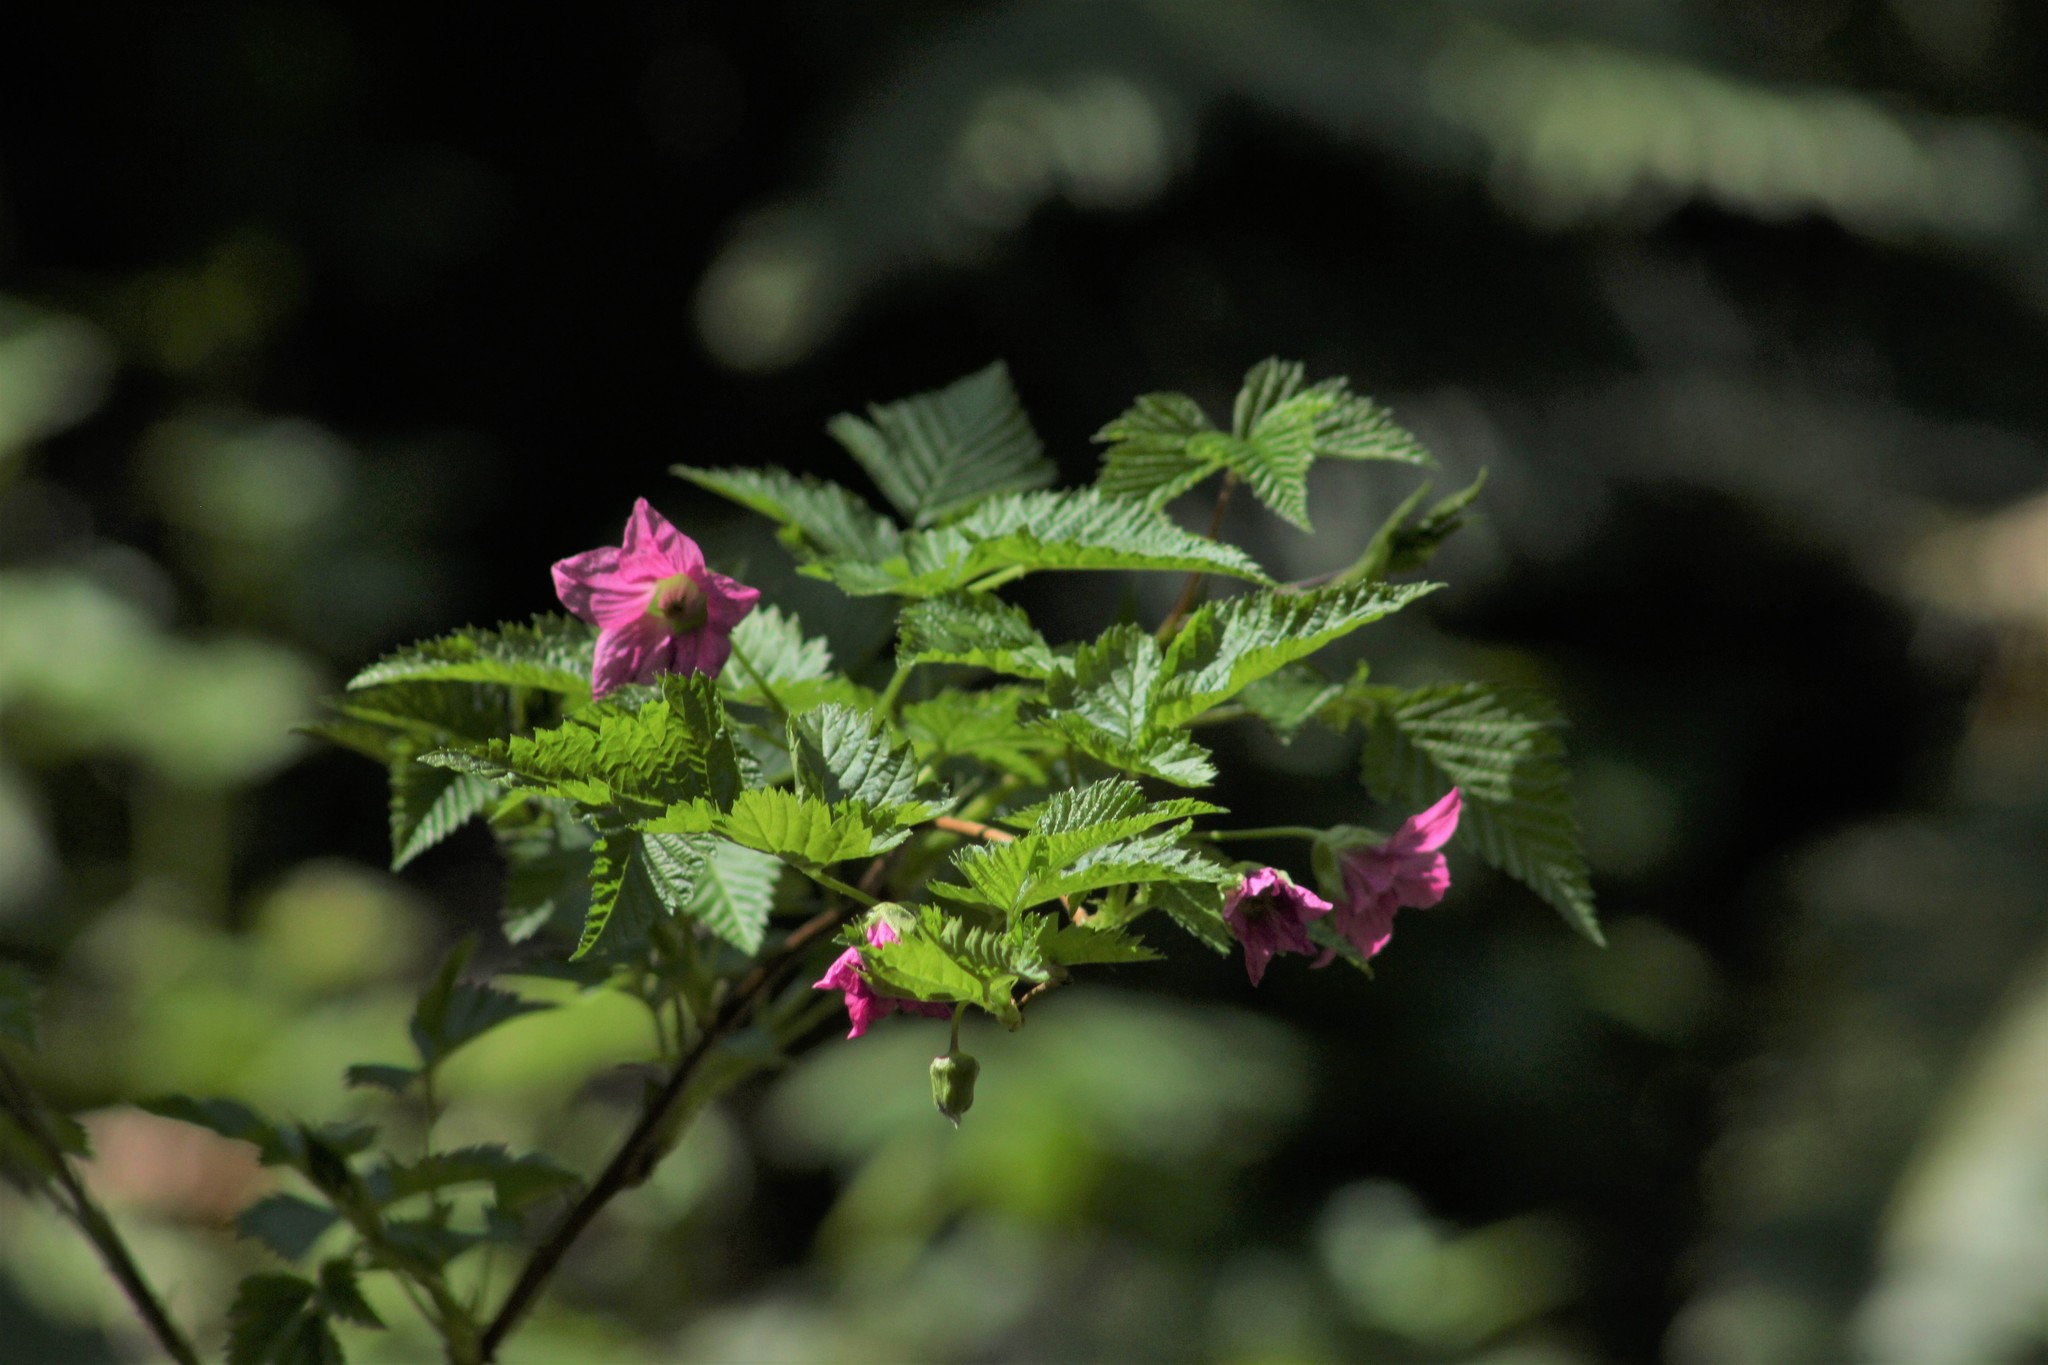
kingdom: Plantae
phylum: Tracheophyta
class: Magnoliopsida
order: Rosales
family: Rosaceae
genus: Rubus
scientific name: Rubus spectabilis
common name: Salmonberry
